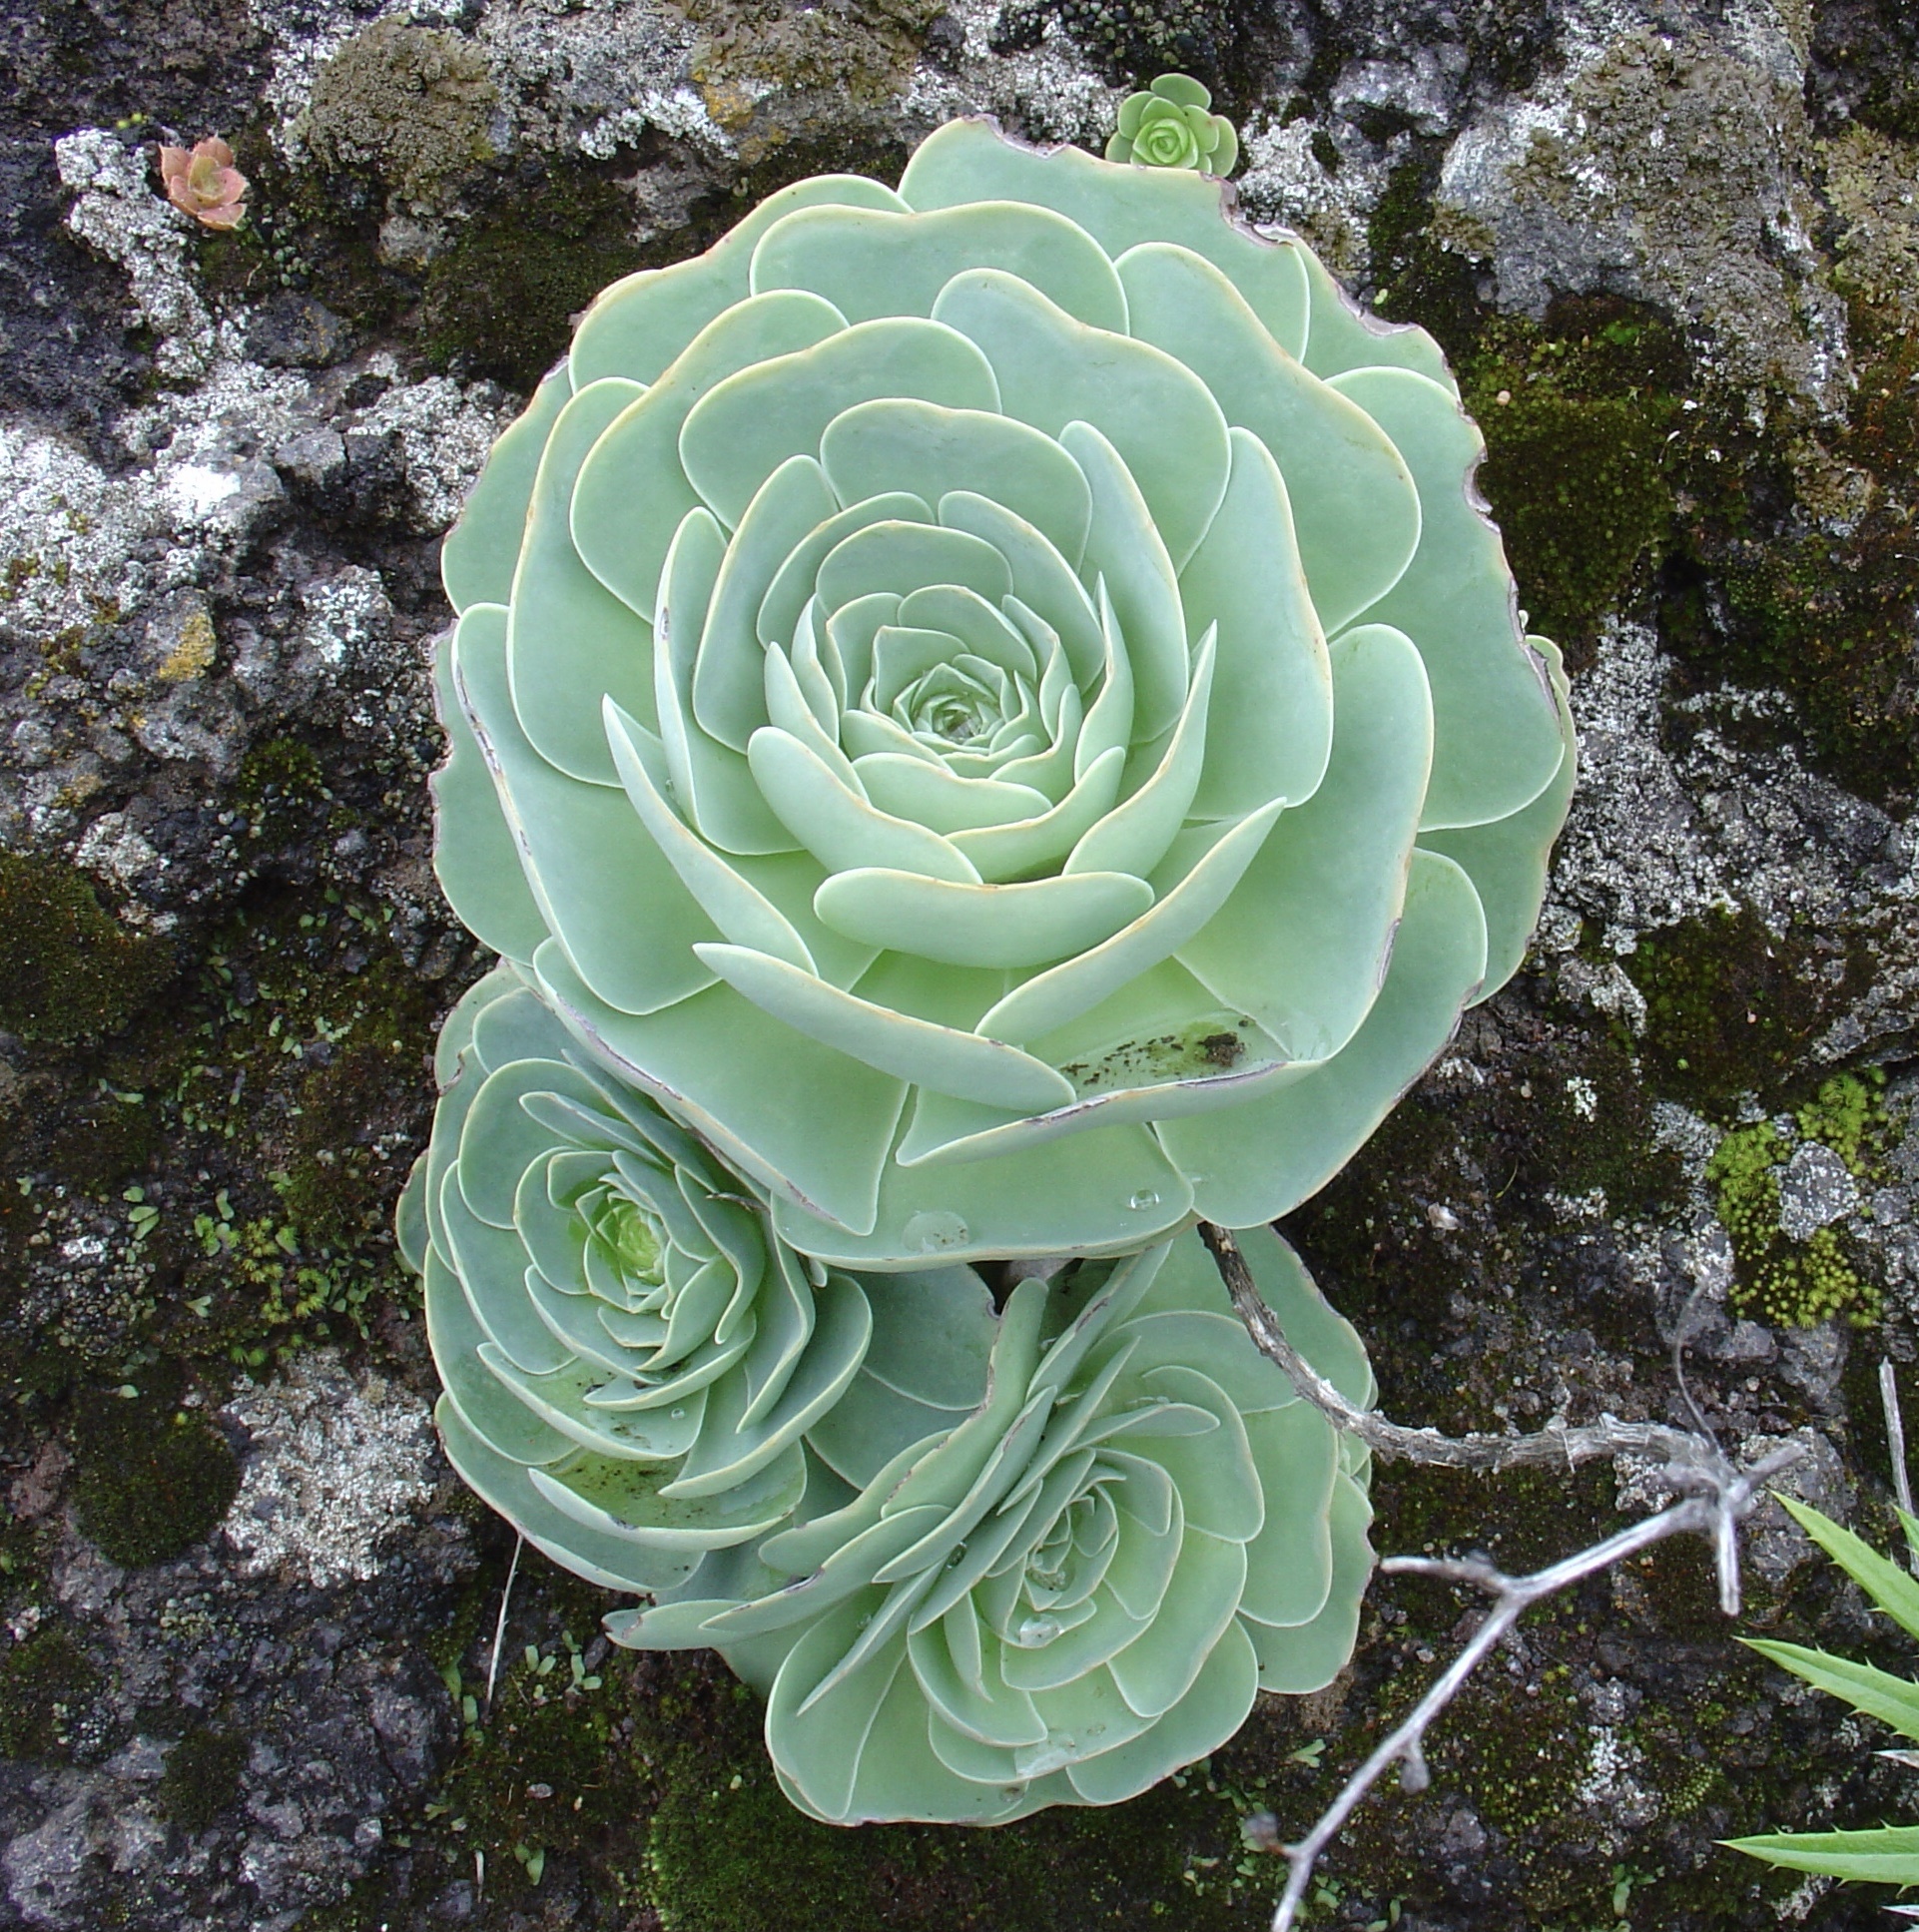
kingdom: Plantae
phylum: Tracheophyta
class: Magnoliopsida
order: Saxifragales
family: Crassulaceae
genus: Aeonium
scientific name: Aeonium aureum
